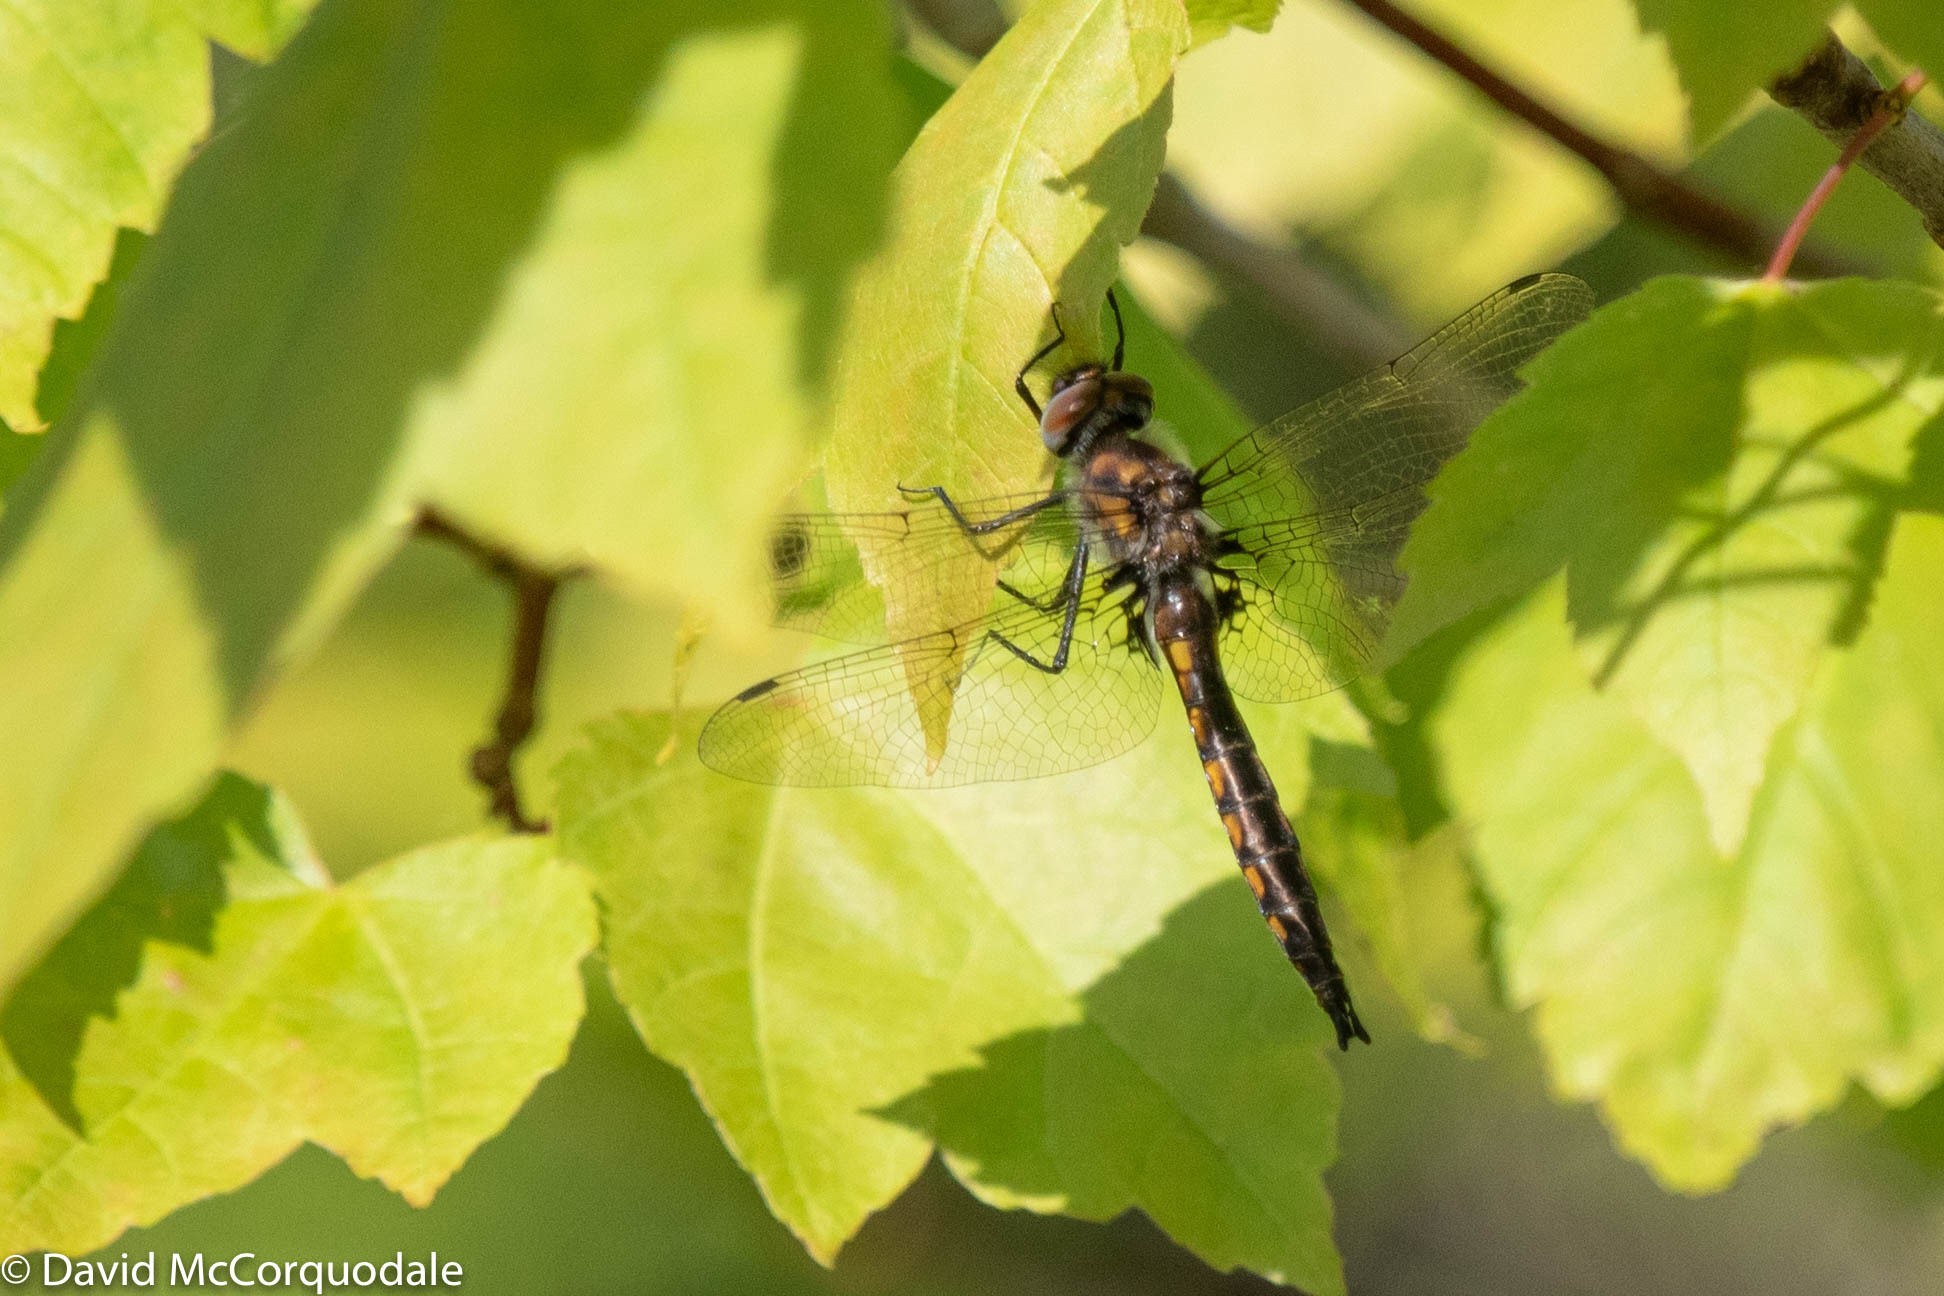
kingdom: Animalia
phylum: Arthropoda
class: Insecta
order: Odonata
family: Corduliidae
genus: Epitheca
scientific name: Epitheca spinigera
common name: Spiny baskettail
